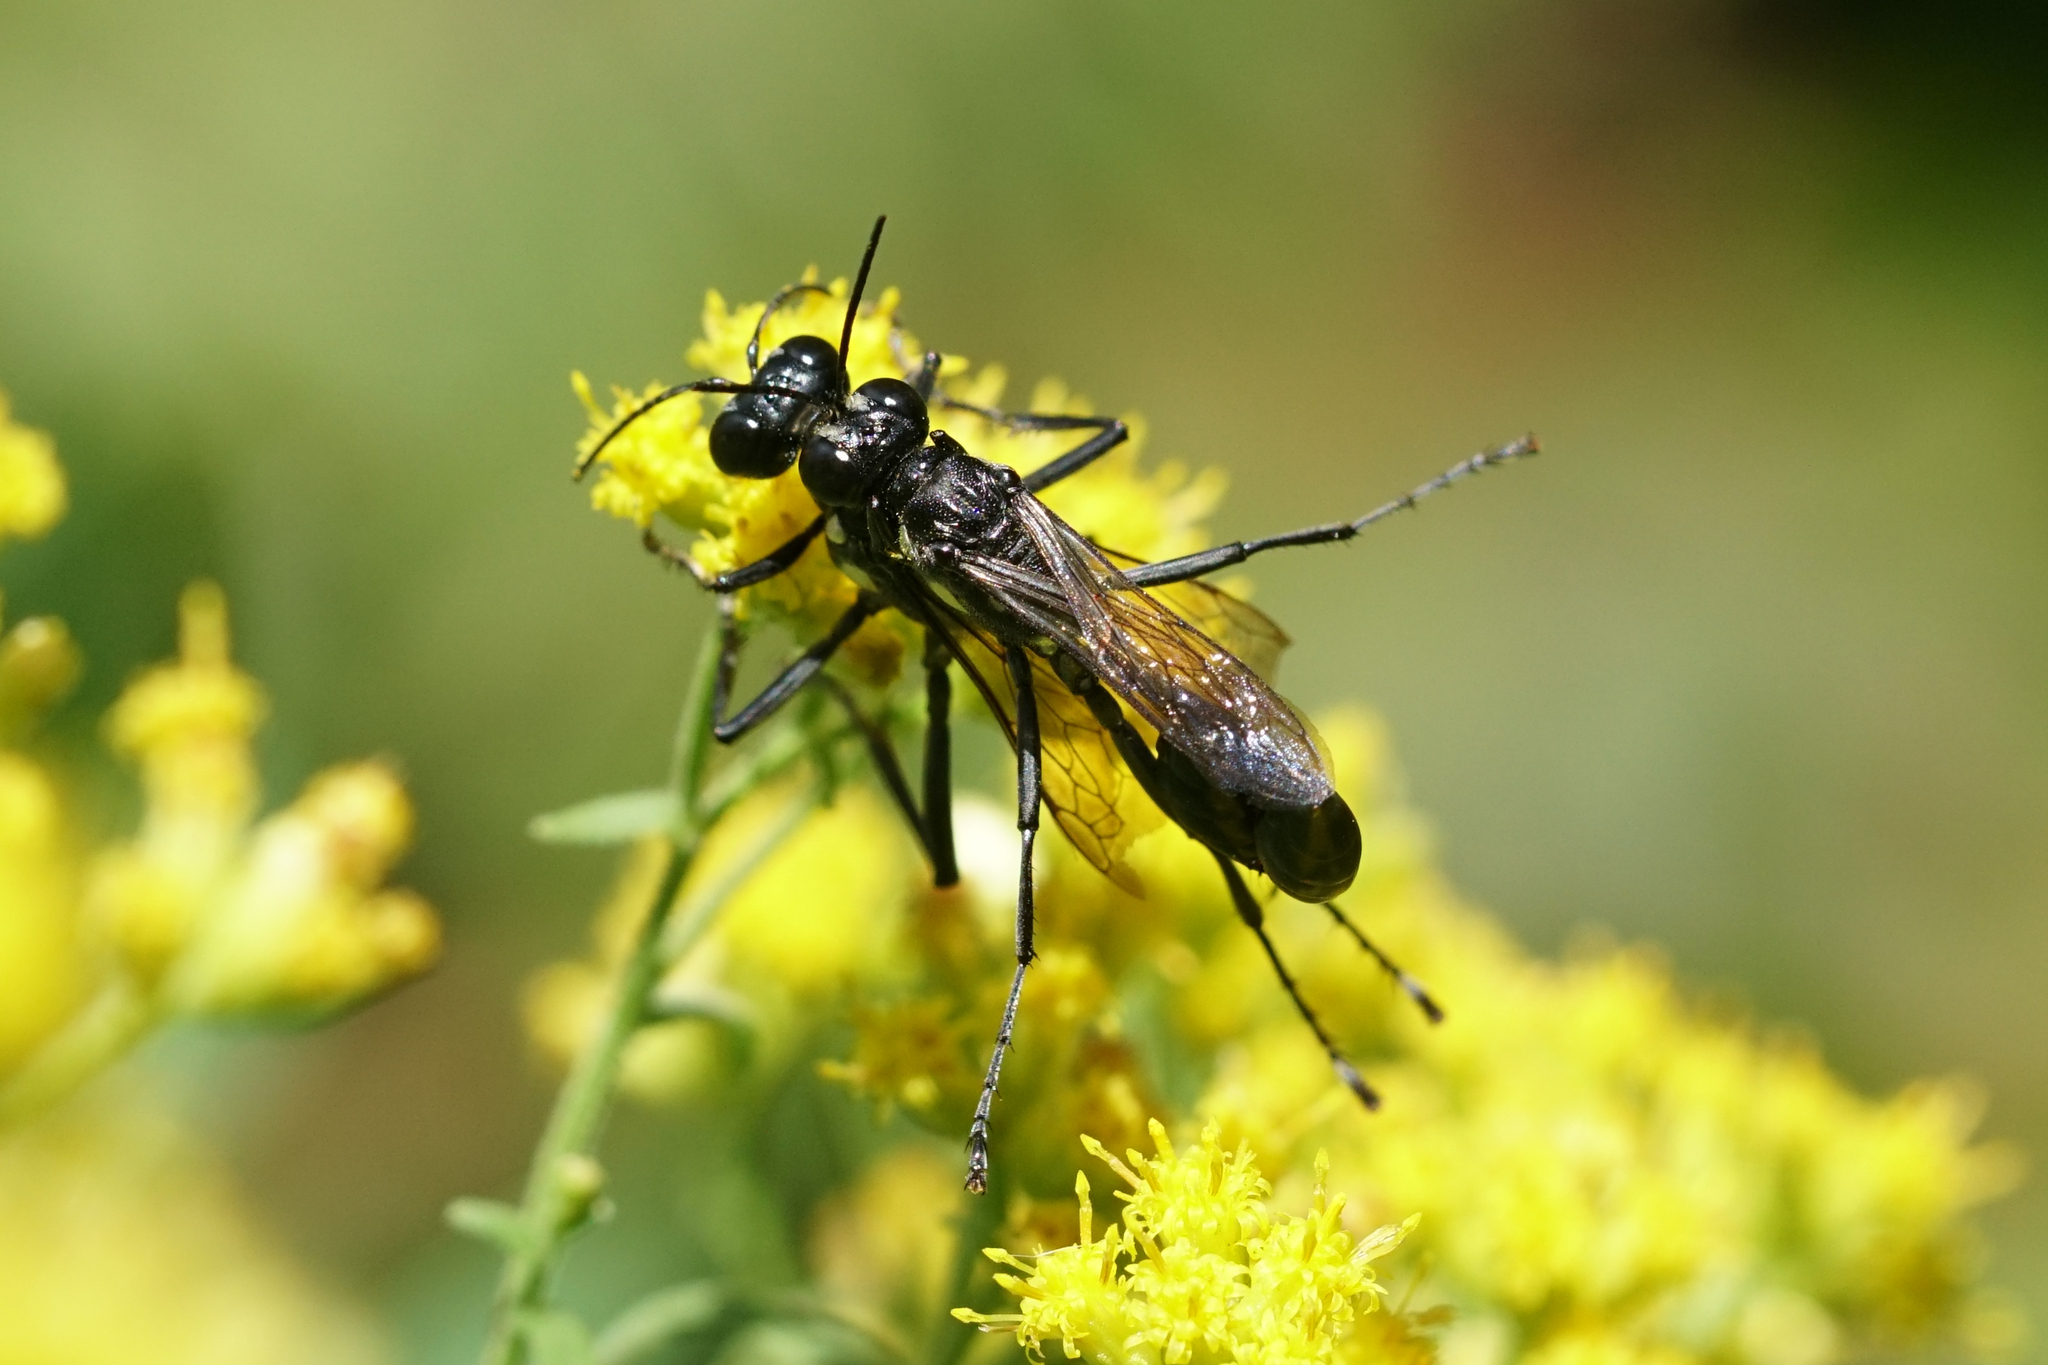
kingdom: Animalia
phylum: Arthropoda
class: Insecta
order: Hymenoptera
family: Sphecidae
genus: Eremnophila
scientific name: Eremnophila aureonotata
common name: Gold-marked thread-waisted wasp
